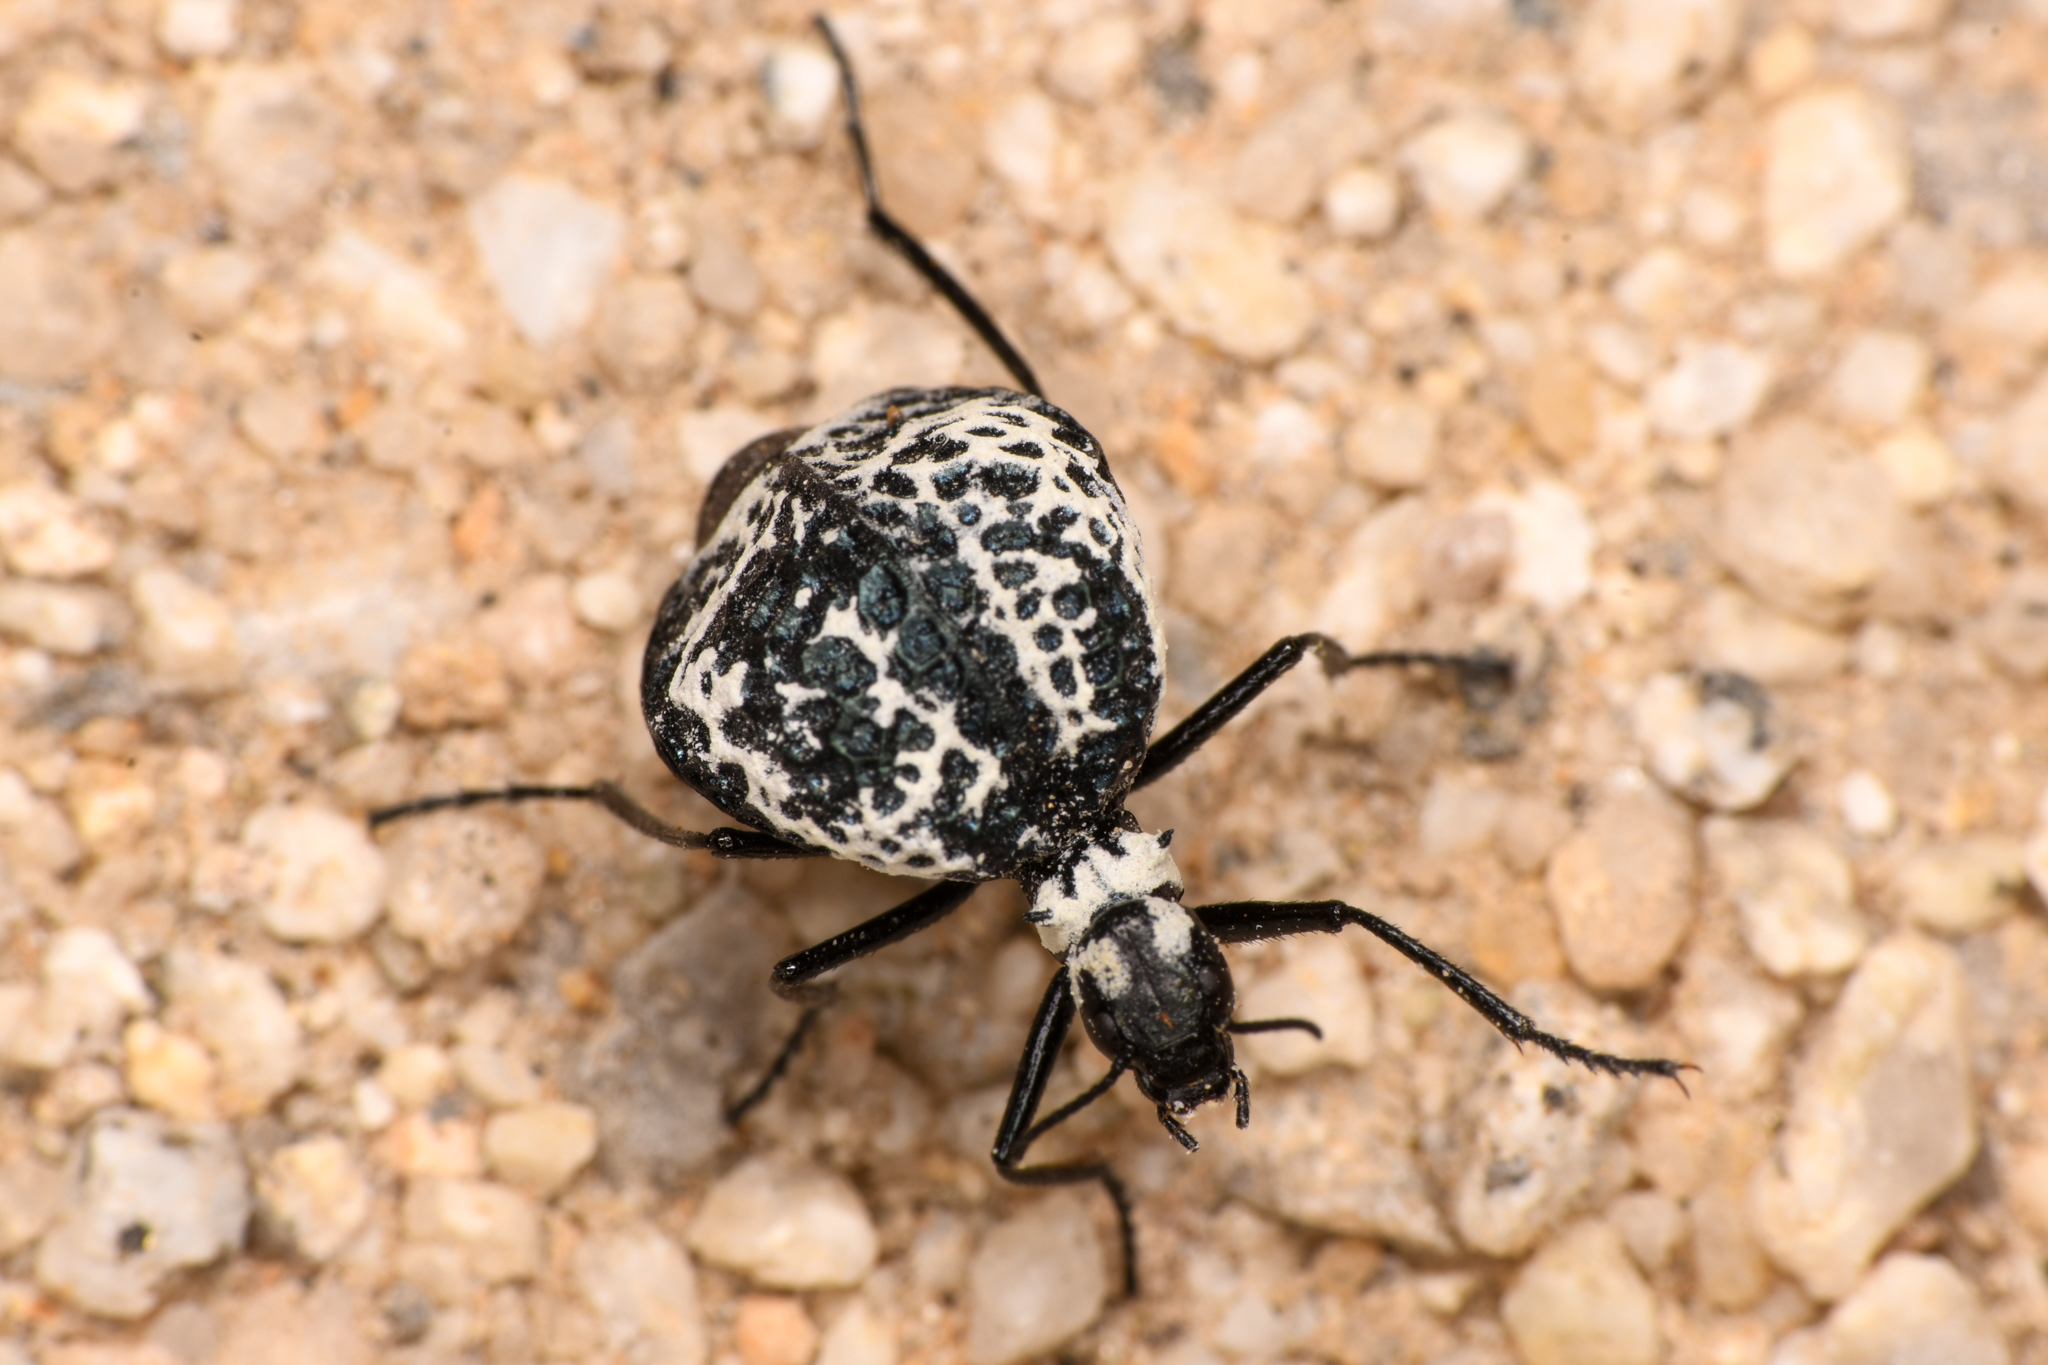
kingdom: Animalia
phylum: Arthropoda
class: Insecta
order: Coleoptera
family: Meloidae
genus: Cysteodemus
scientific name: Cysteodemus armatus
